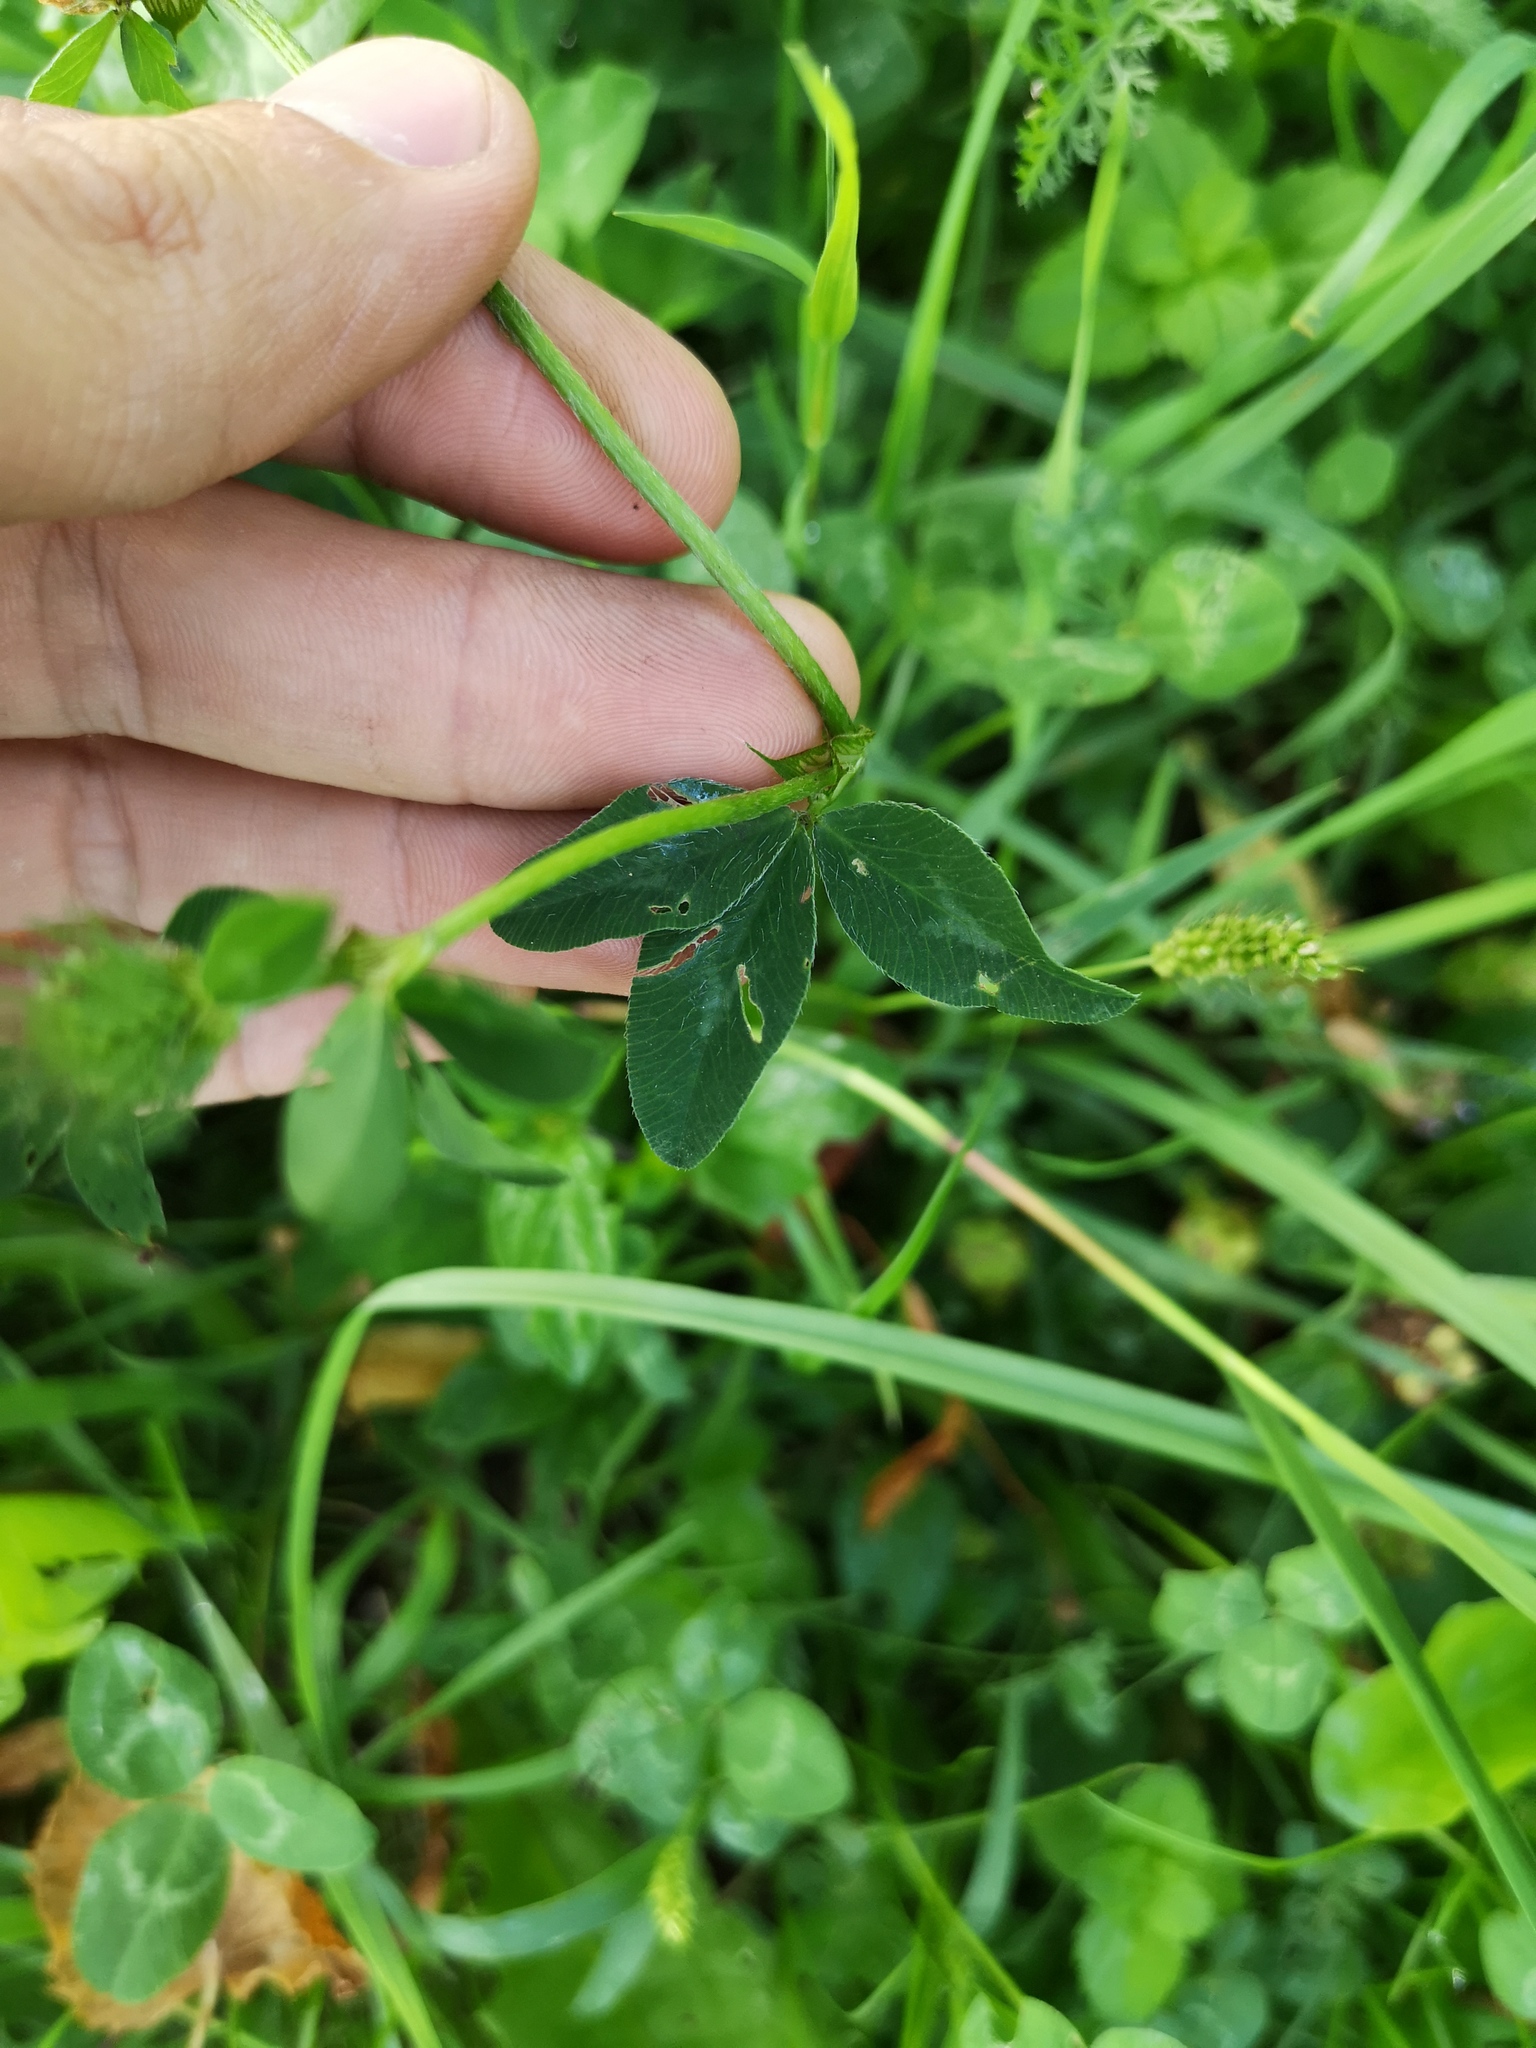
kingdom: Plantae
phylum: Tracheophyta
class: Magnoliopsida
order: Fabales
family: Fabaceae
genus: Trifolium
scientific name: Trifolium pratense
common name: Red clover
